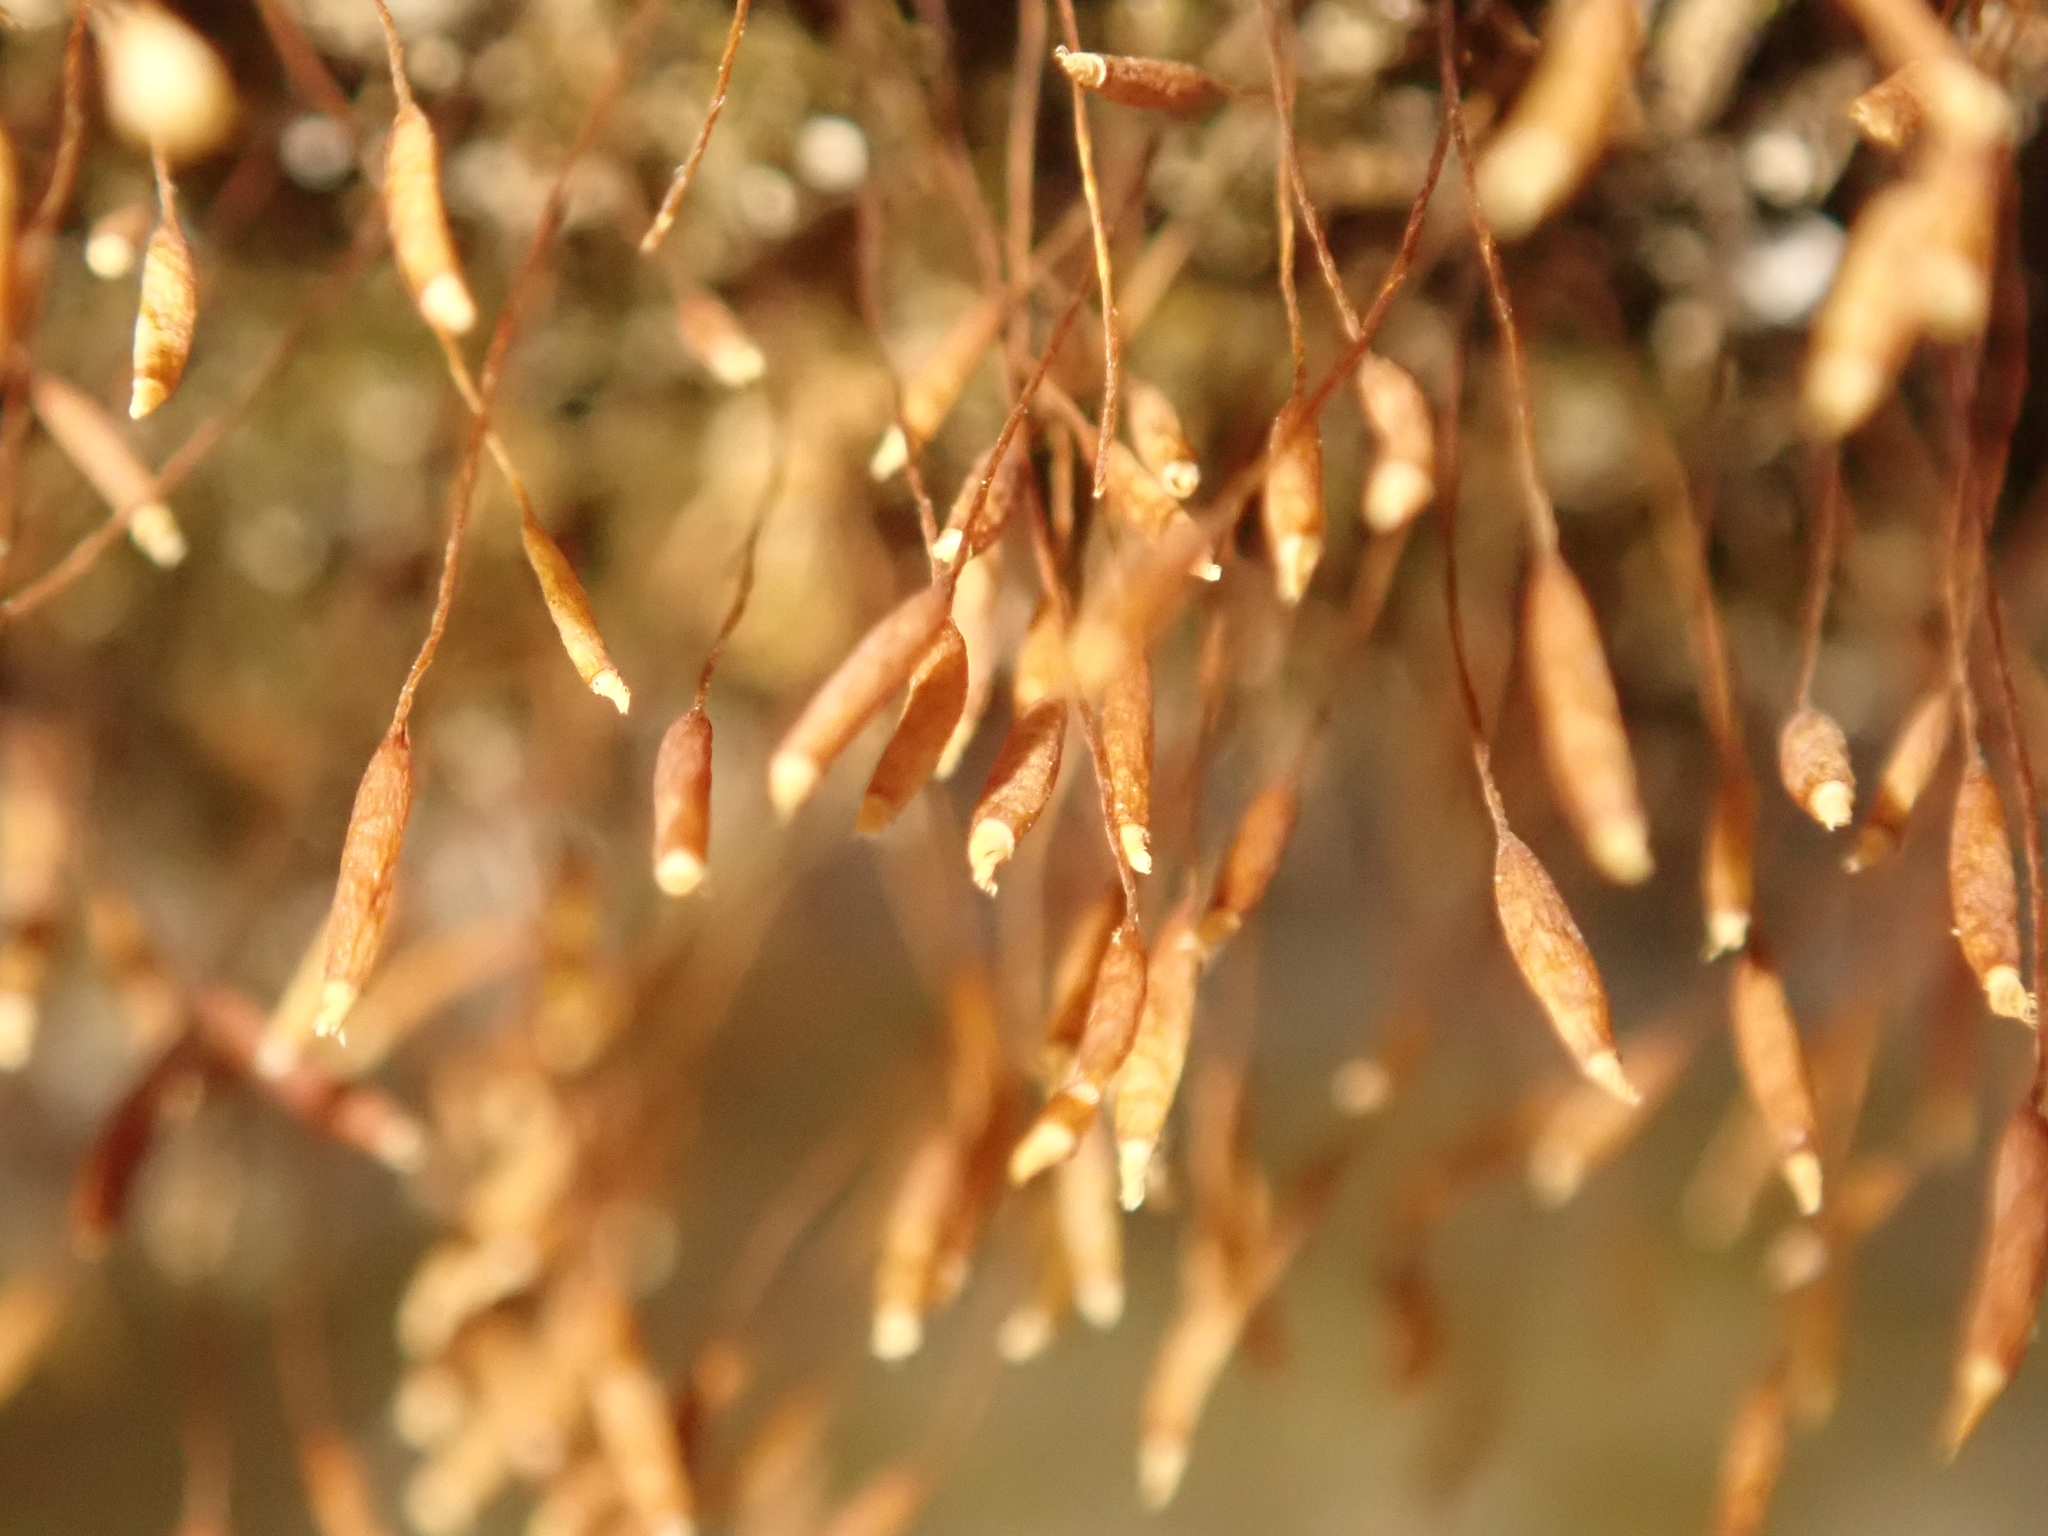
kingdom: Plantae
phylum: Bryophyta
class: Bryopsida
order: Pottiales
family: Pottiaceae
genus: Tortula
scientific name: Tortula muralis
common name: Wall screw-moss
